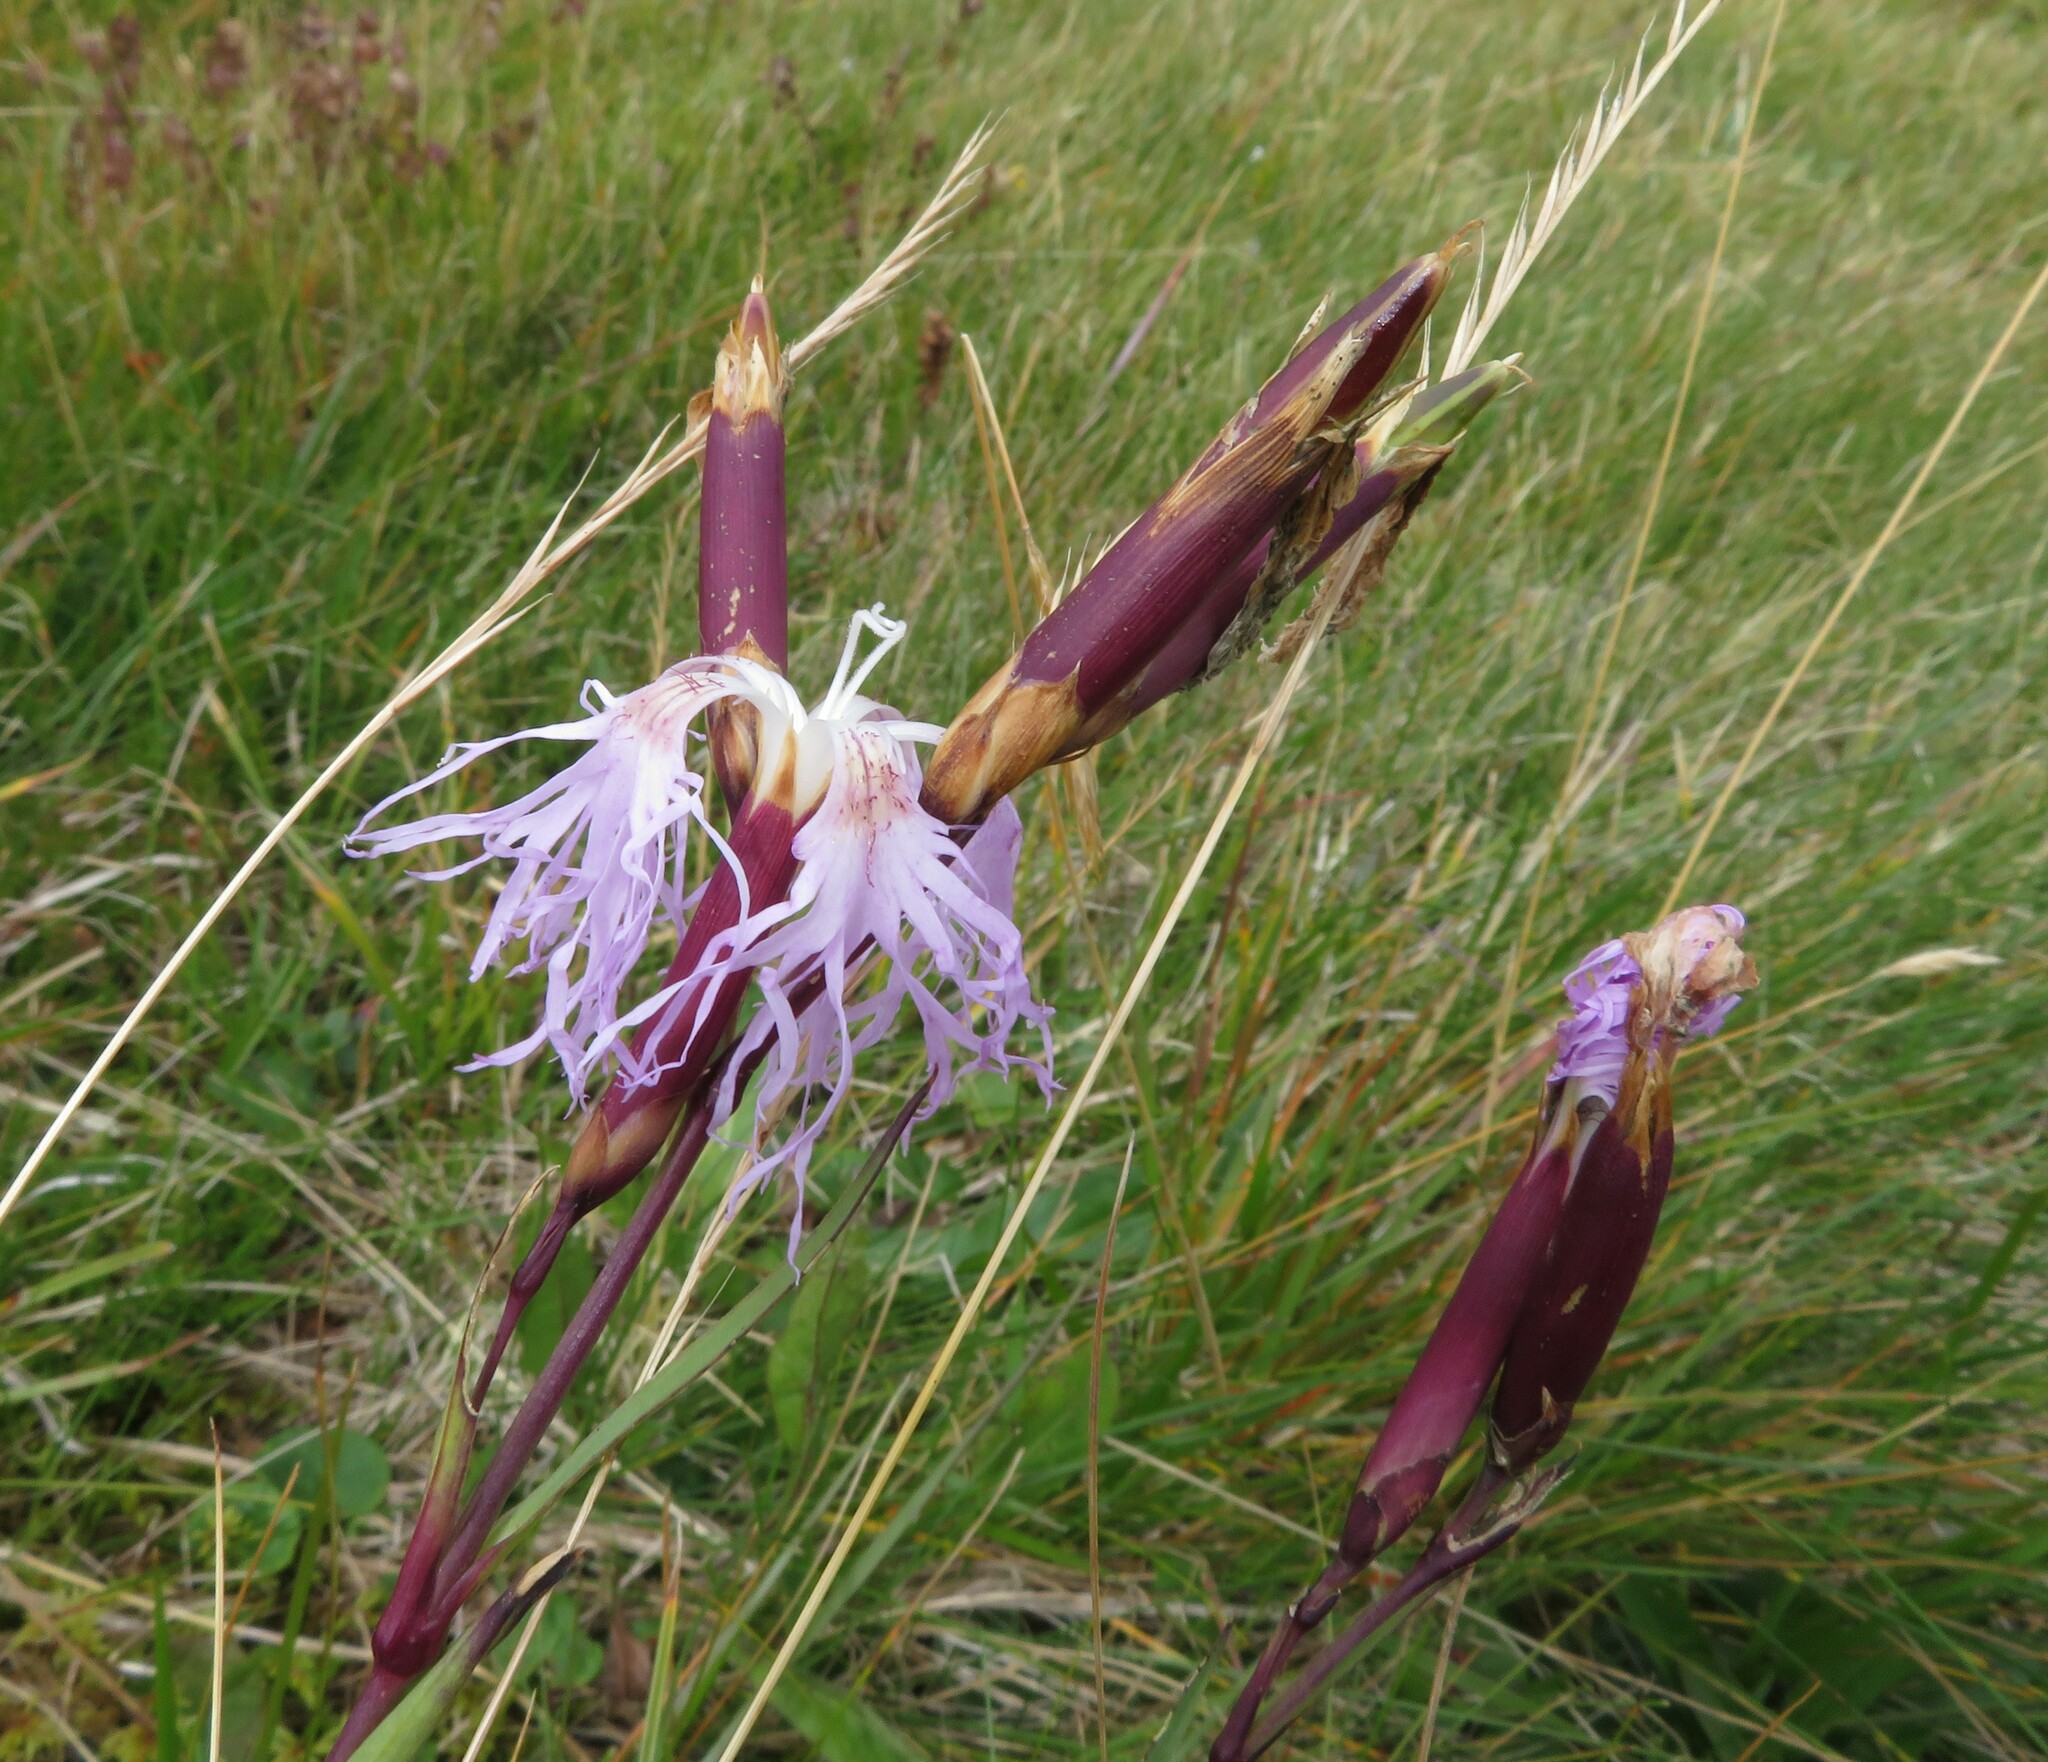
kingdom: Plantae
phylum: Tracheophyta
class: Magnoliopsida
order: Caryophyllales
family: Caryophyllaceae
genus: Dianthus
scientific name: Dianthus superbus
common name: Fringed pink
